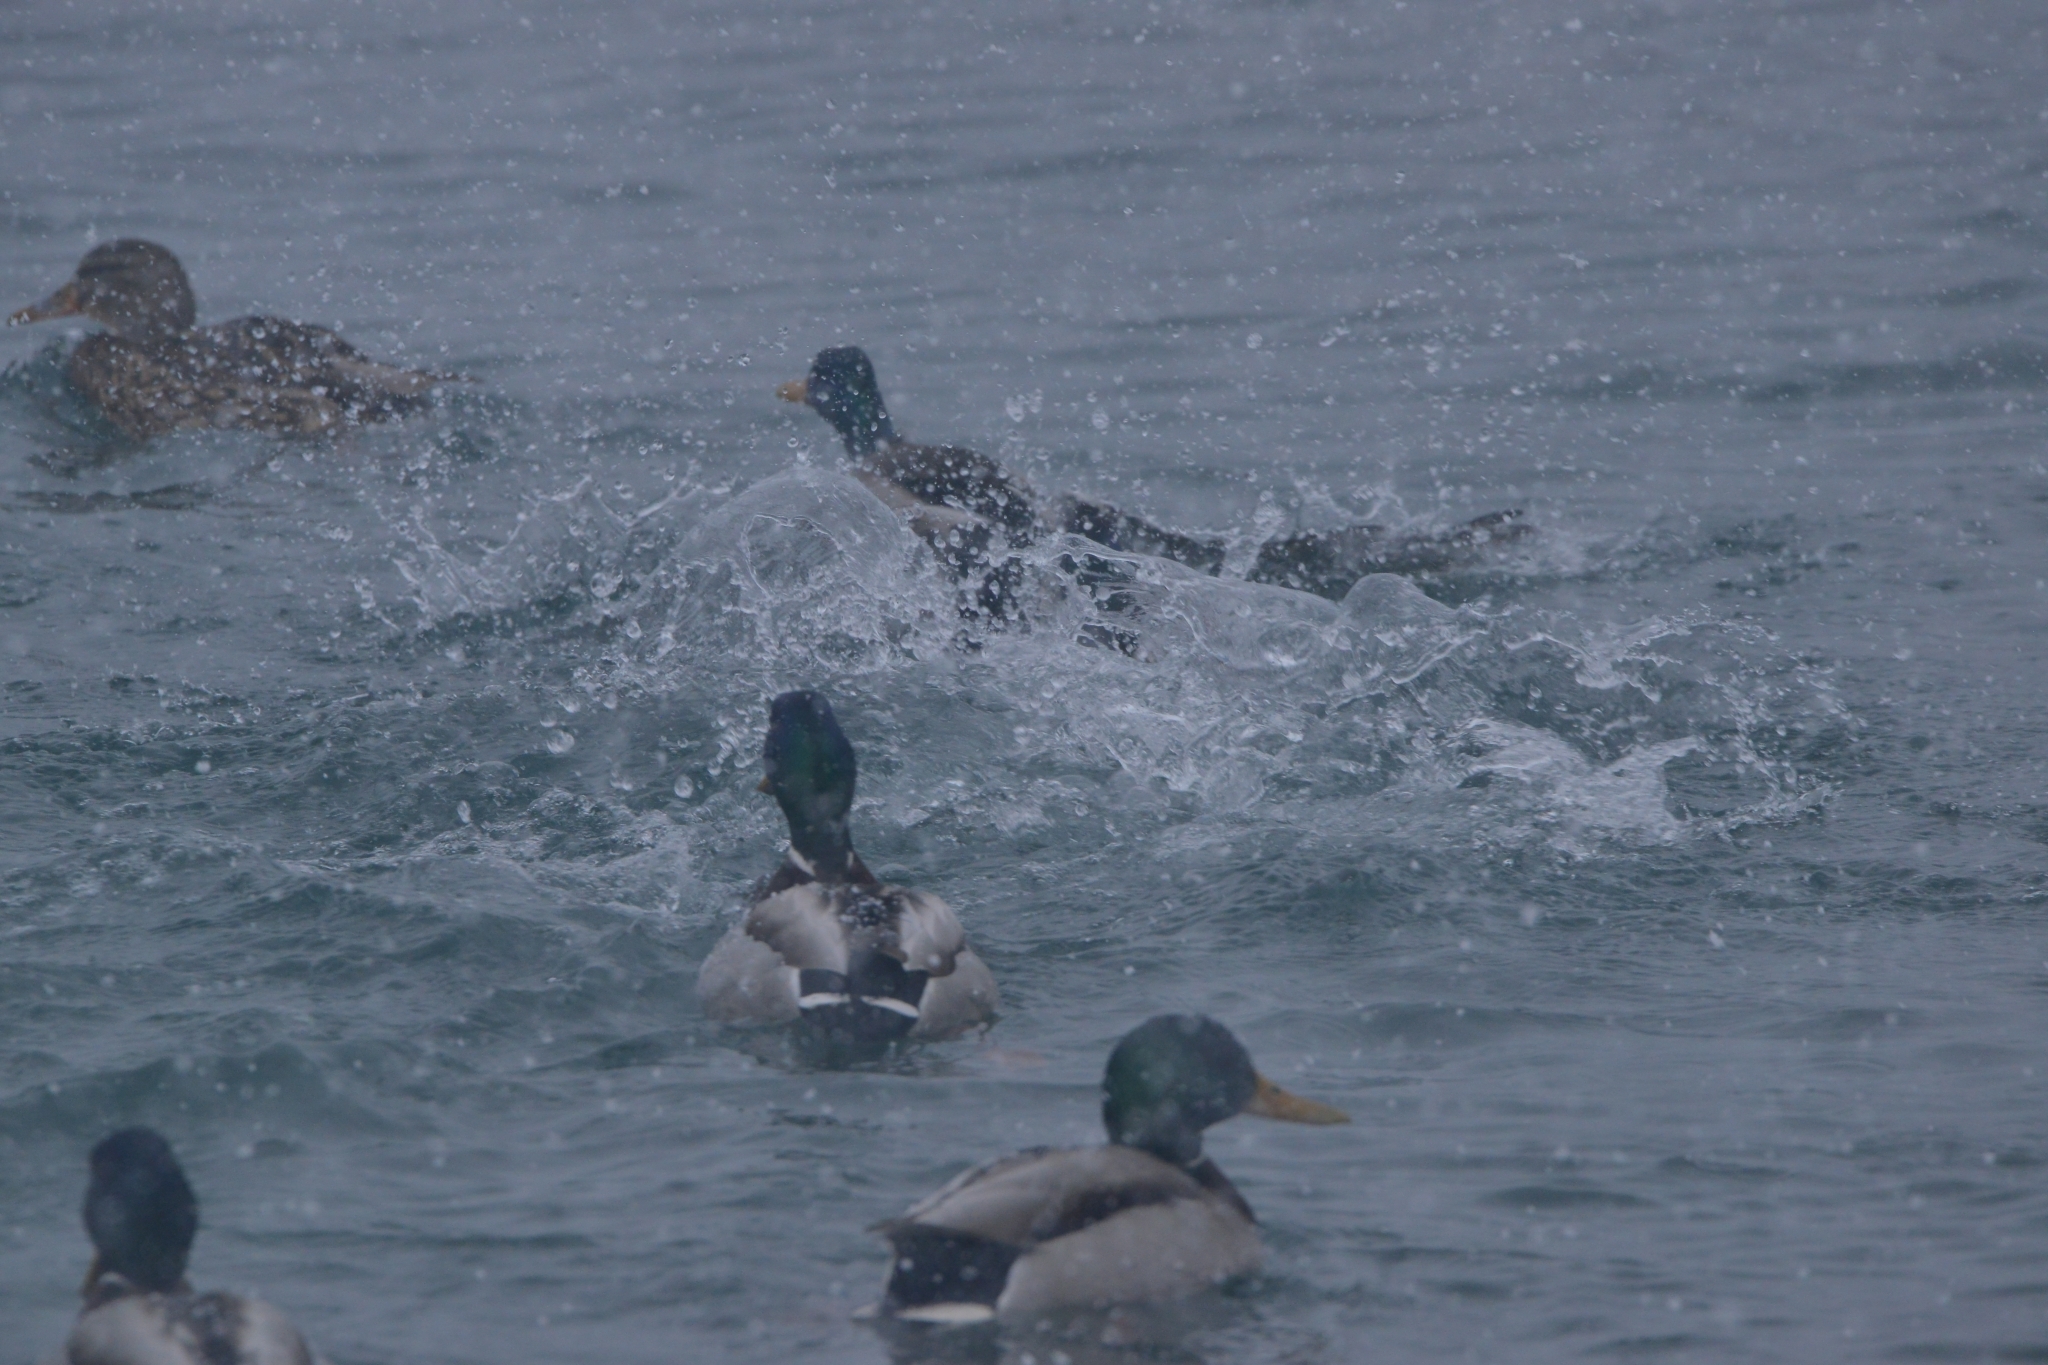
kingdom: Animalia
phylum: Chordata
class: Aves
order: Anseriformes
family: Anatidae
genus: Anas
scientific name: Anas platyrhynchos
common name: Mallard
